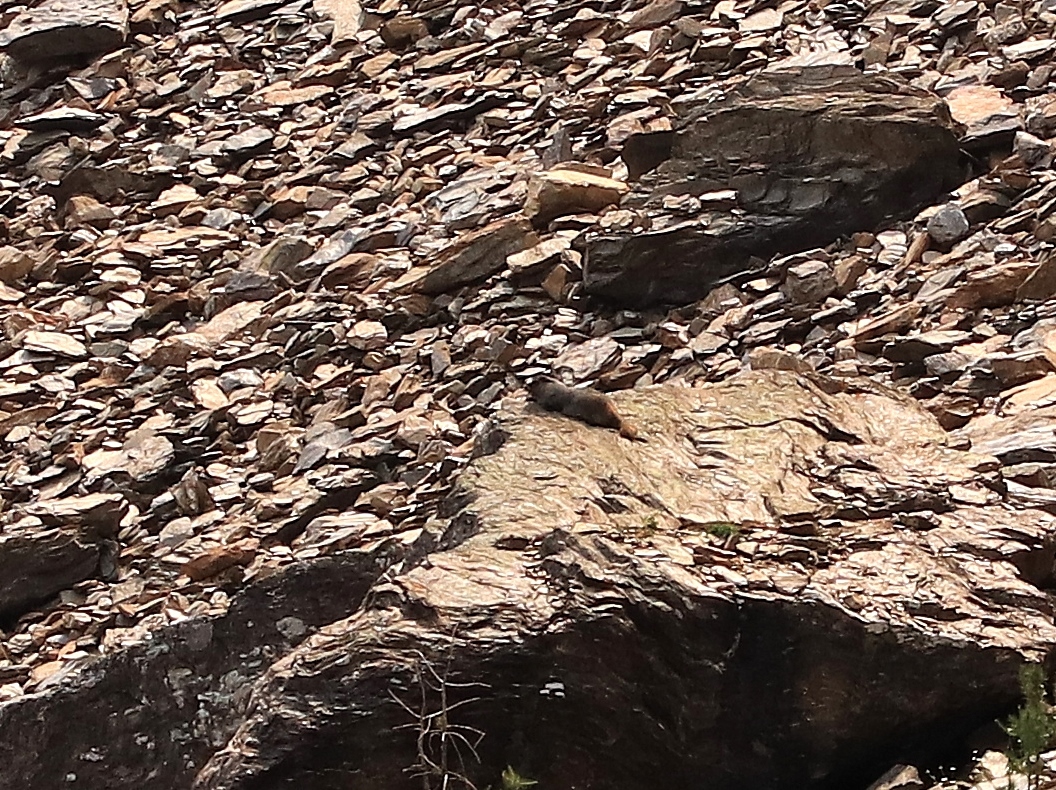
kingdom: Animalia
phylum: Chordata
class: Mammalia
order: Rodentia
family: Sciuridae
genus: Marmota
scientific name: Marmota caligata
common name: Hoary marmot
